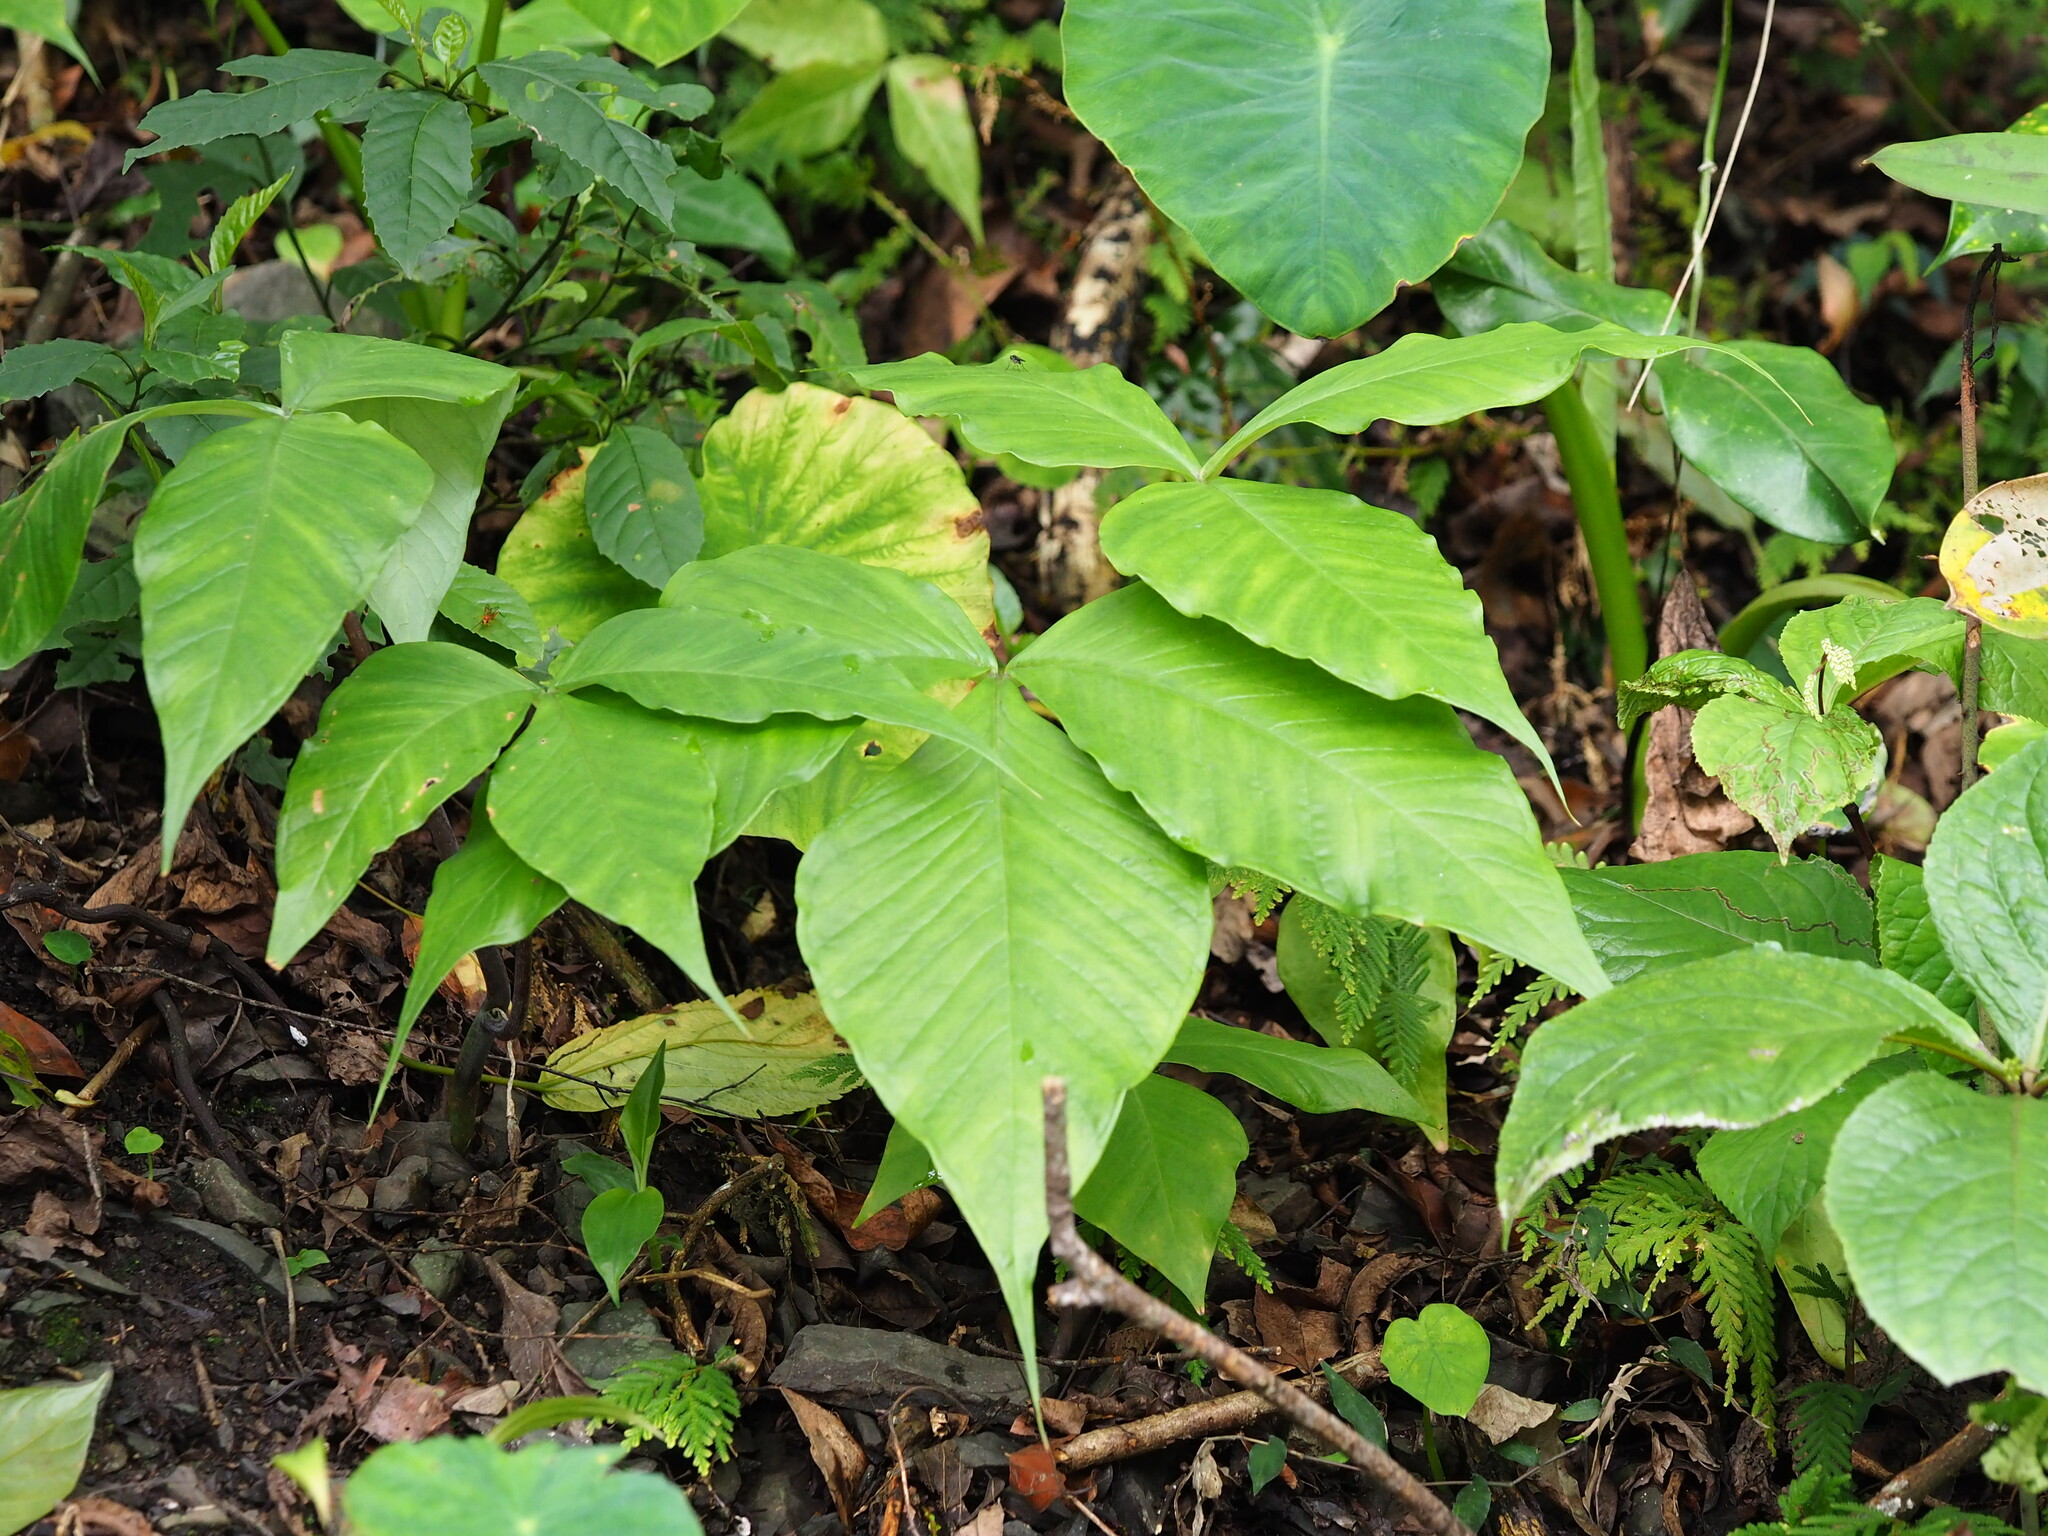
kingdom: Plantae
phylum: Tracheophyta
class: Liliopsida
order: Alismatales
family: Araceae
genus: Arisaema
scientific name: Arisaema ringens
